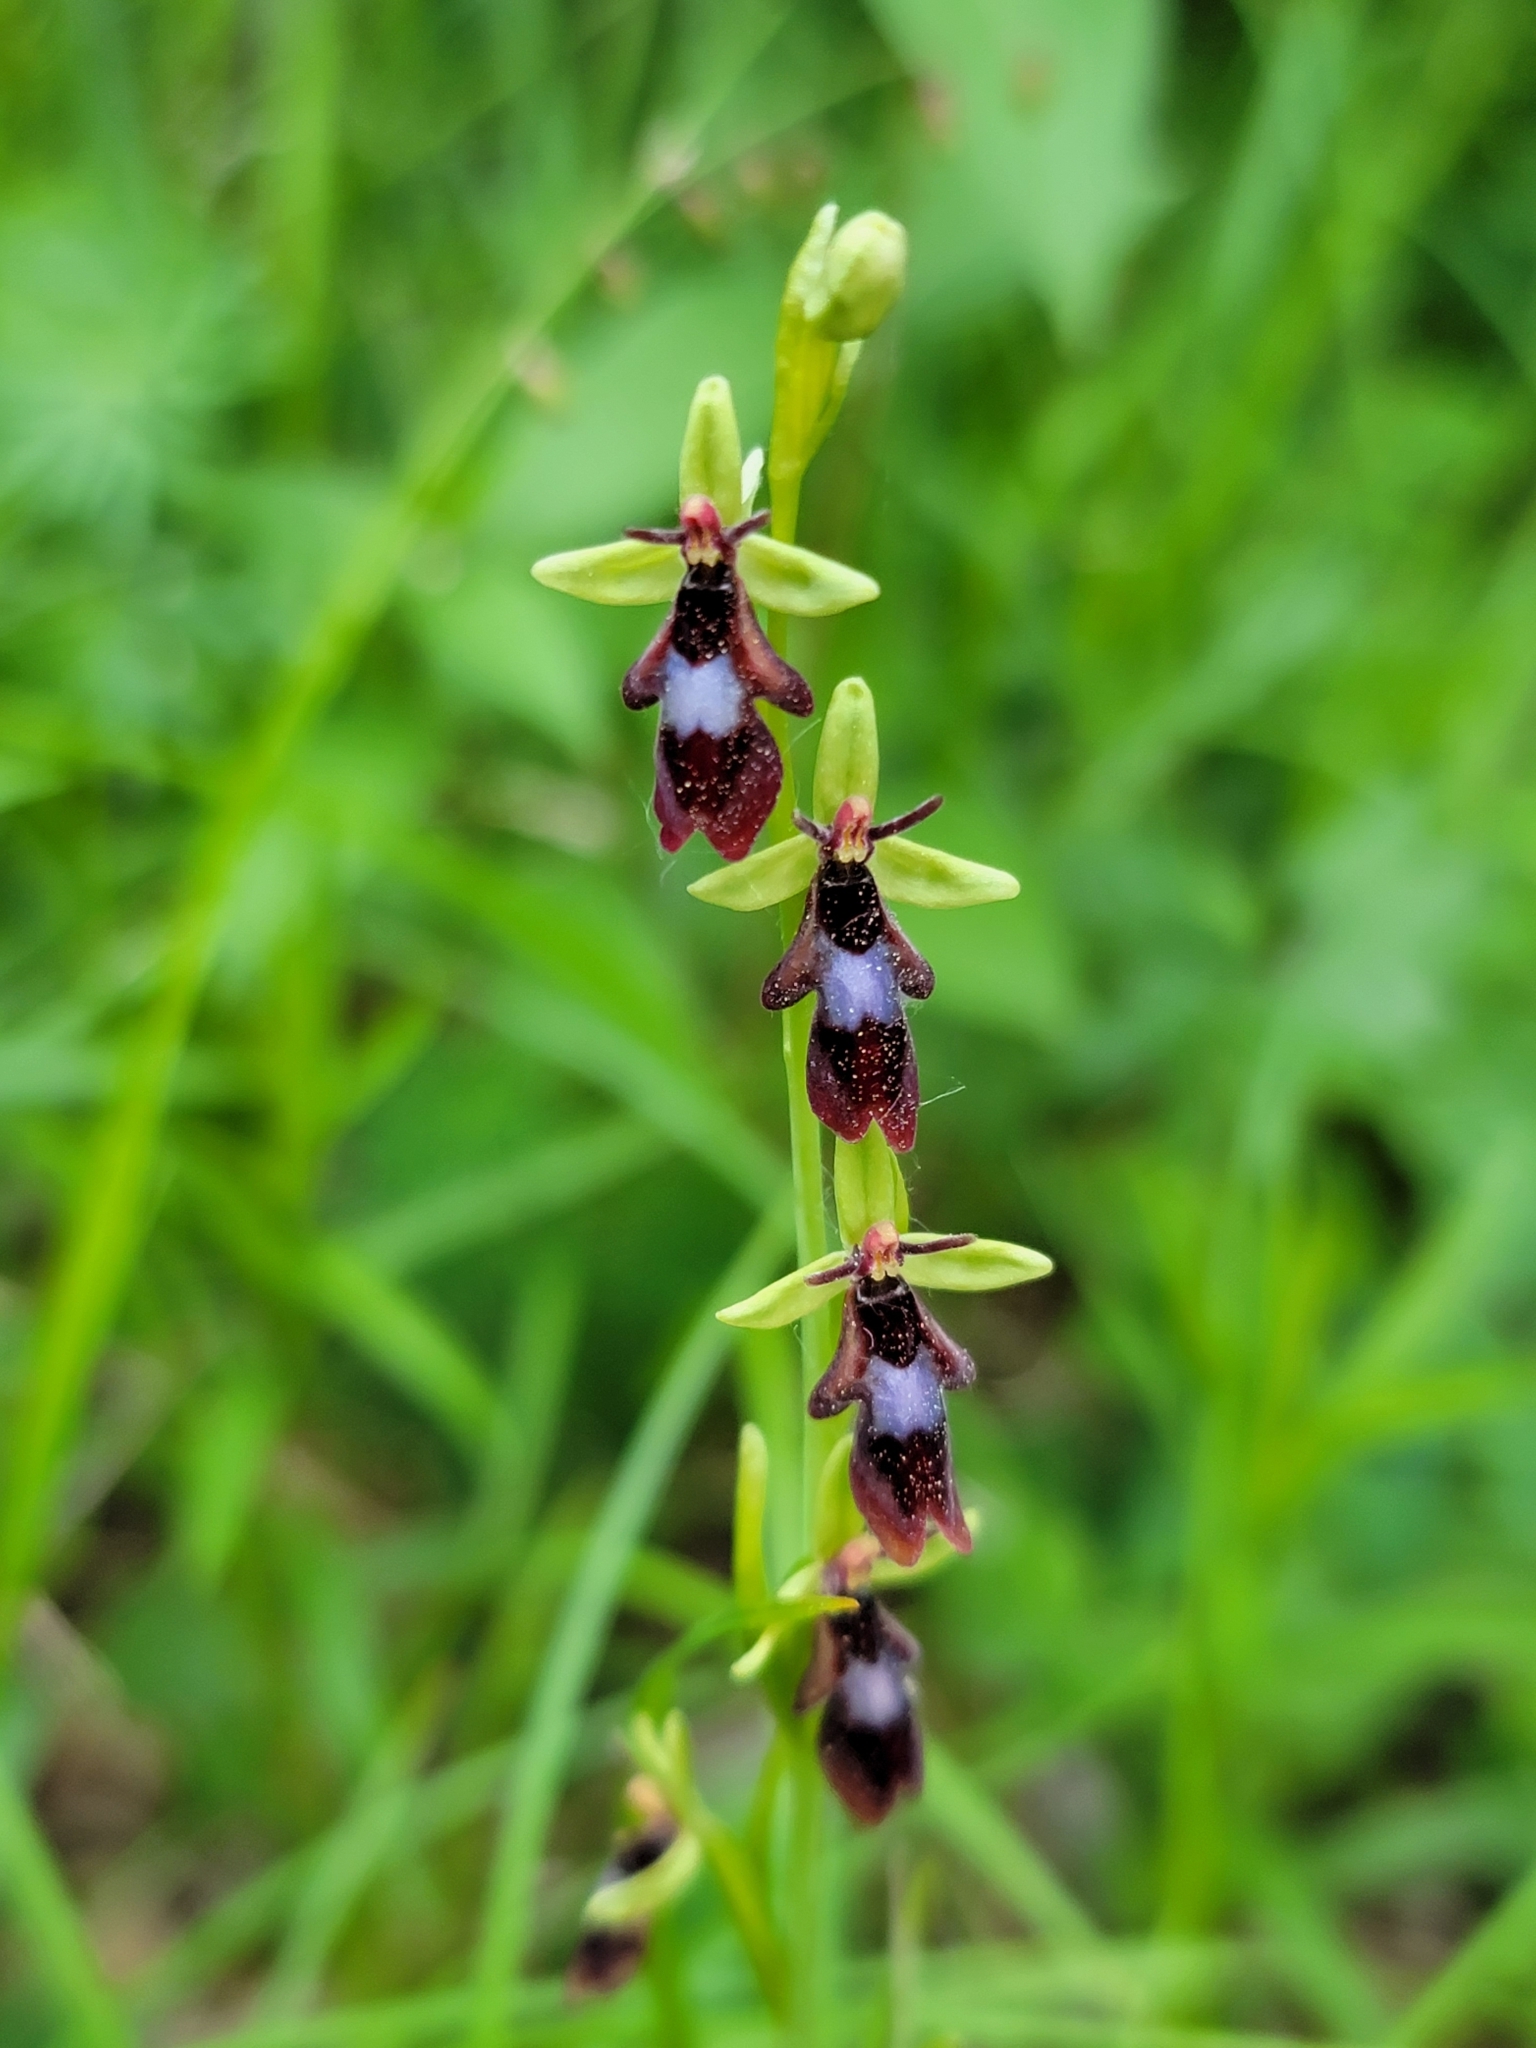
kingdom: Plantae
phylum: Tracheophyta
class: Liliopsida
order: Asparagales
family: Orchidaceae
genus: Ophrys
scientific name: Ophrys insectifera
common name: Fly orchid
